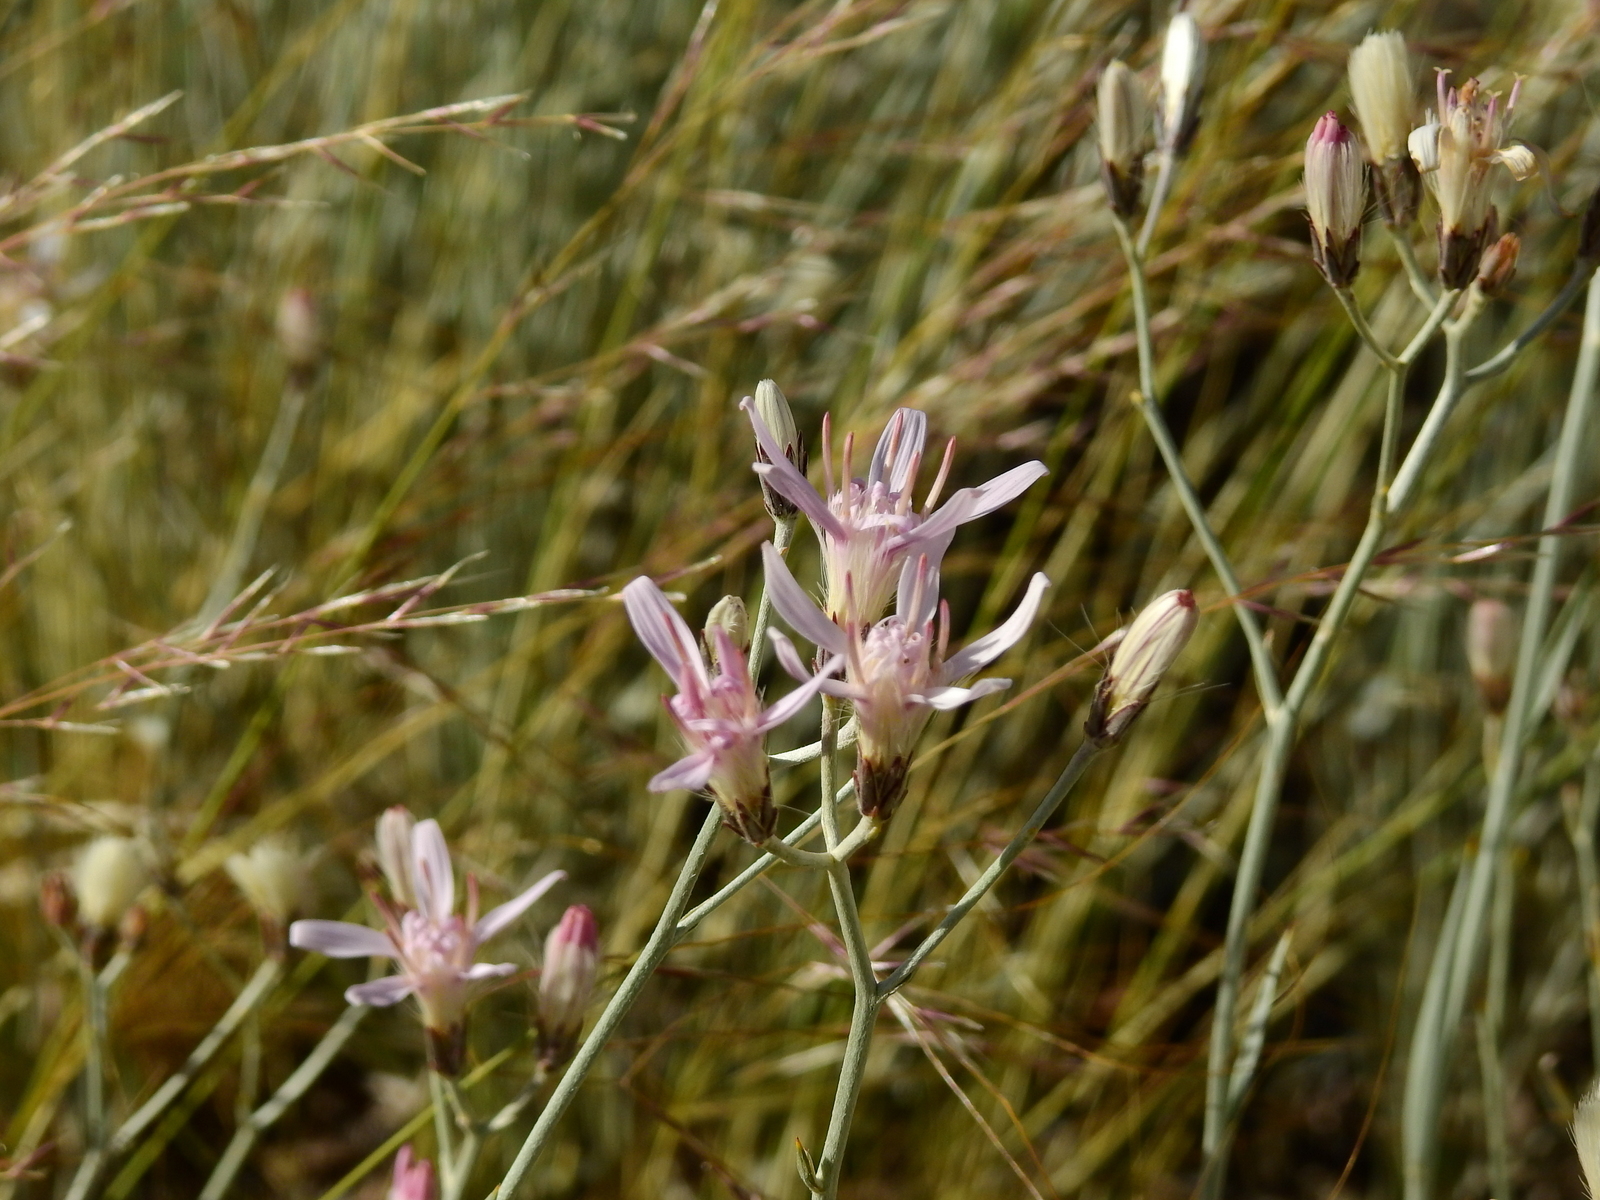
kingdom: Plantae
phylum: Tracheophyta
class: Magnoliopsida
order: Asterales
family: Asteraceae
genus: Hyalis
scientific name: Hyalis argentea
